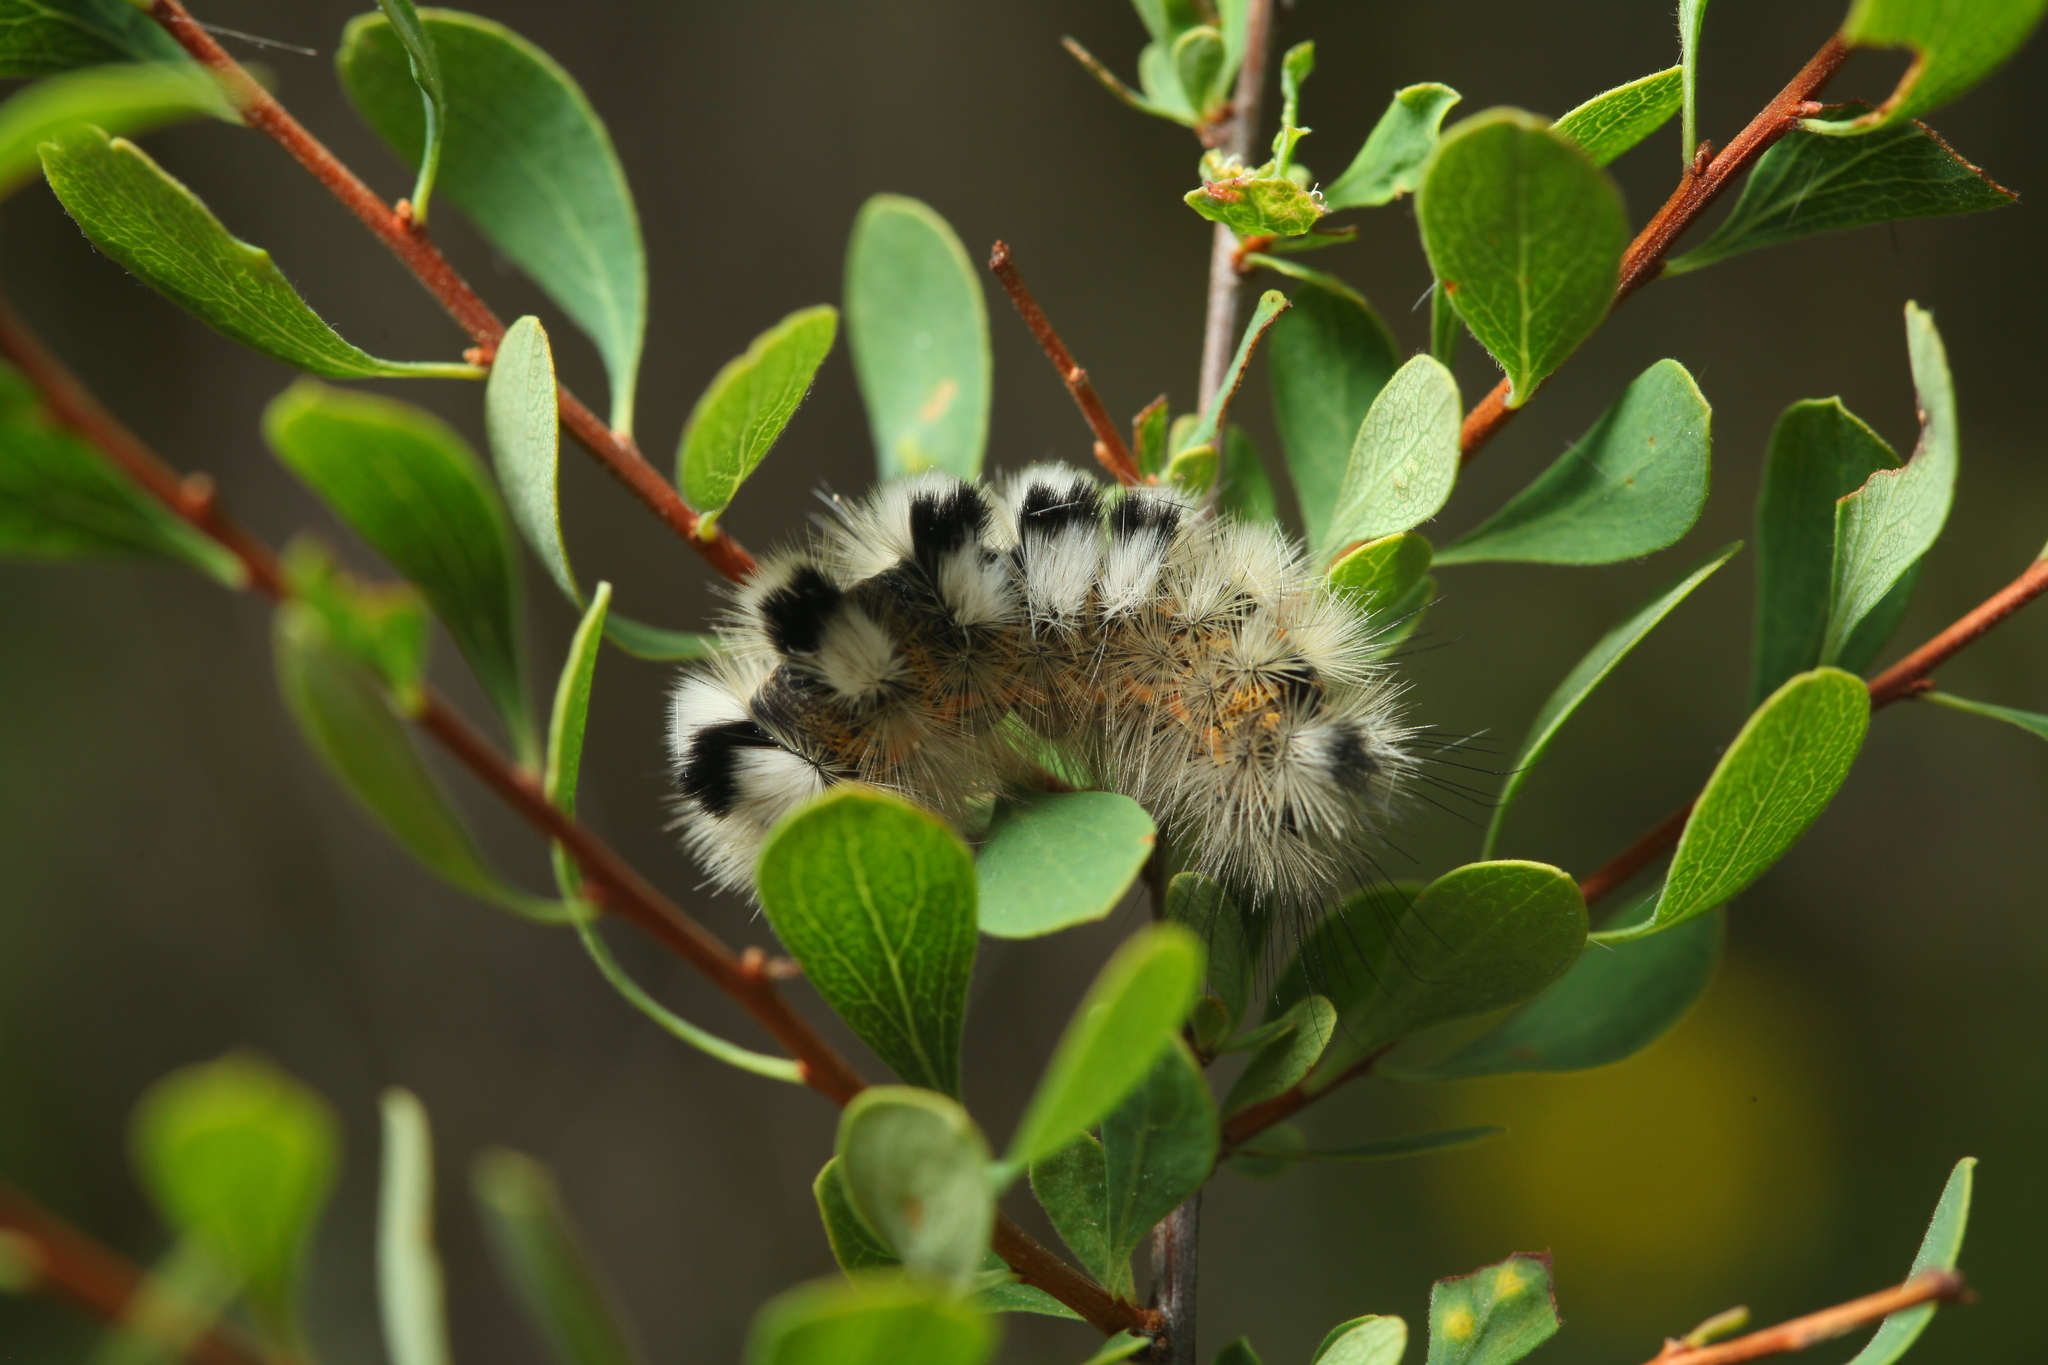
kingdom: Animalia
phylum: Arthropoda
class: Insecta
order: Lepidoptera
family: Erebidae
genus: Calliteara
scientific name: Calliteara Dicallomera fascelina
